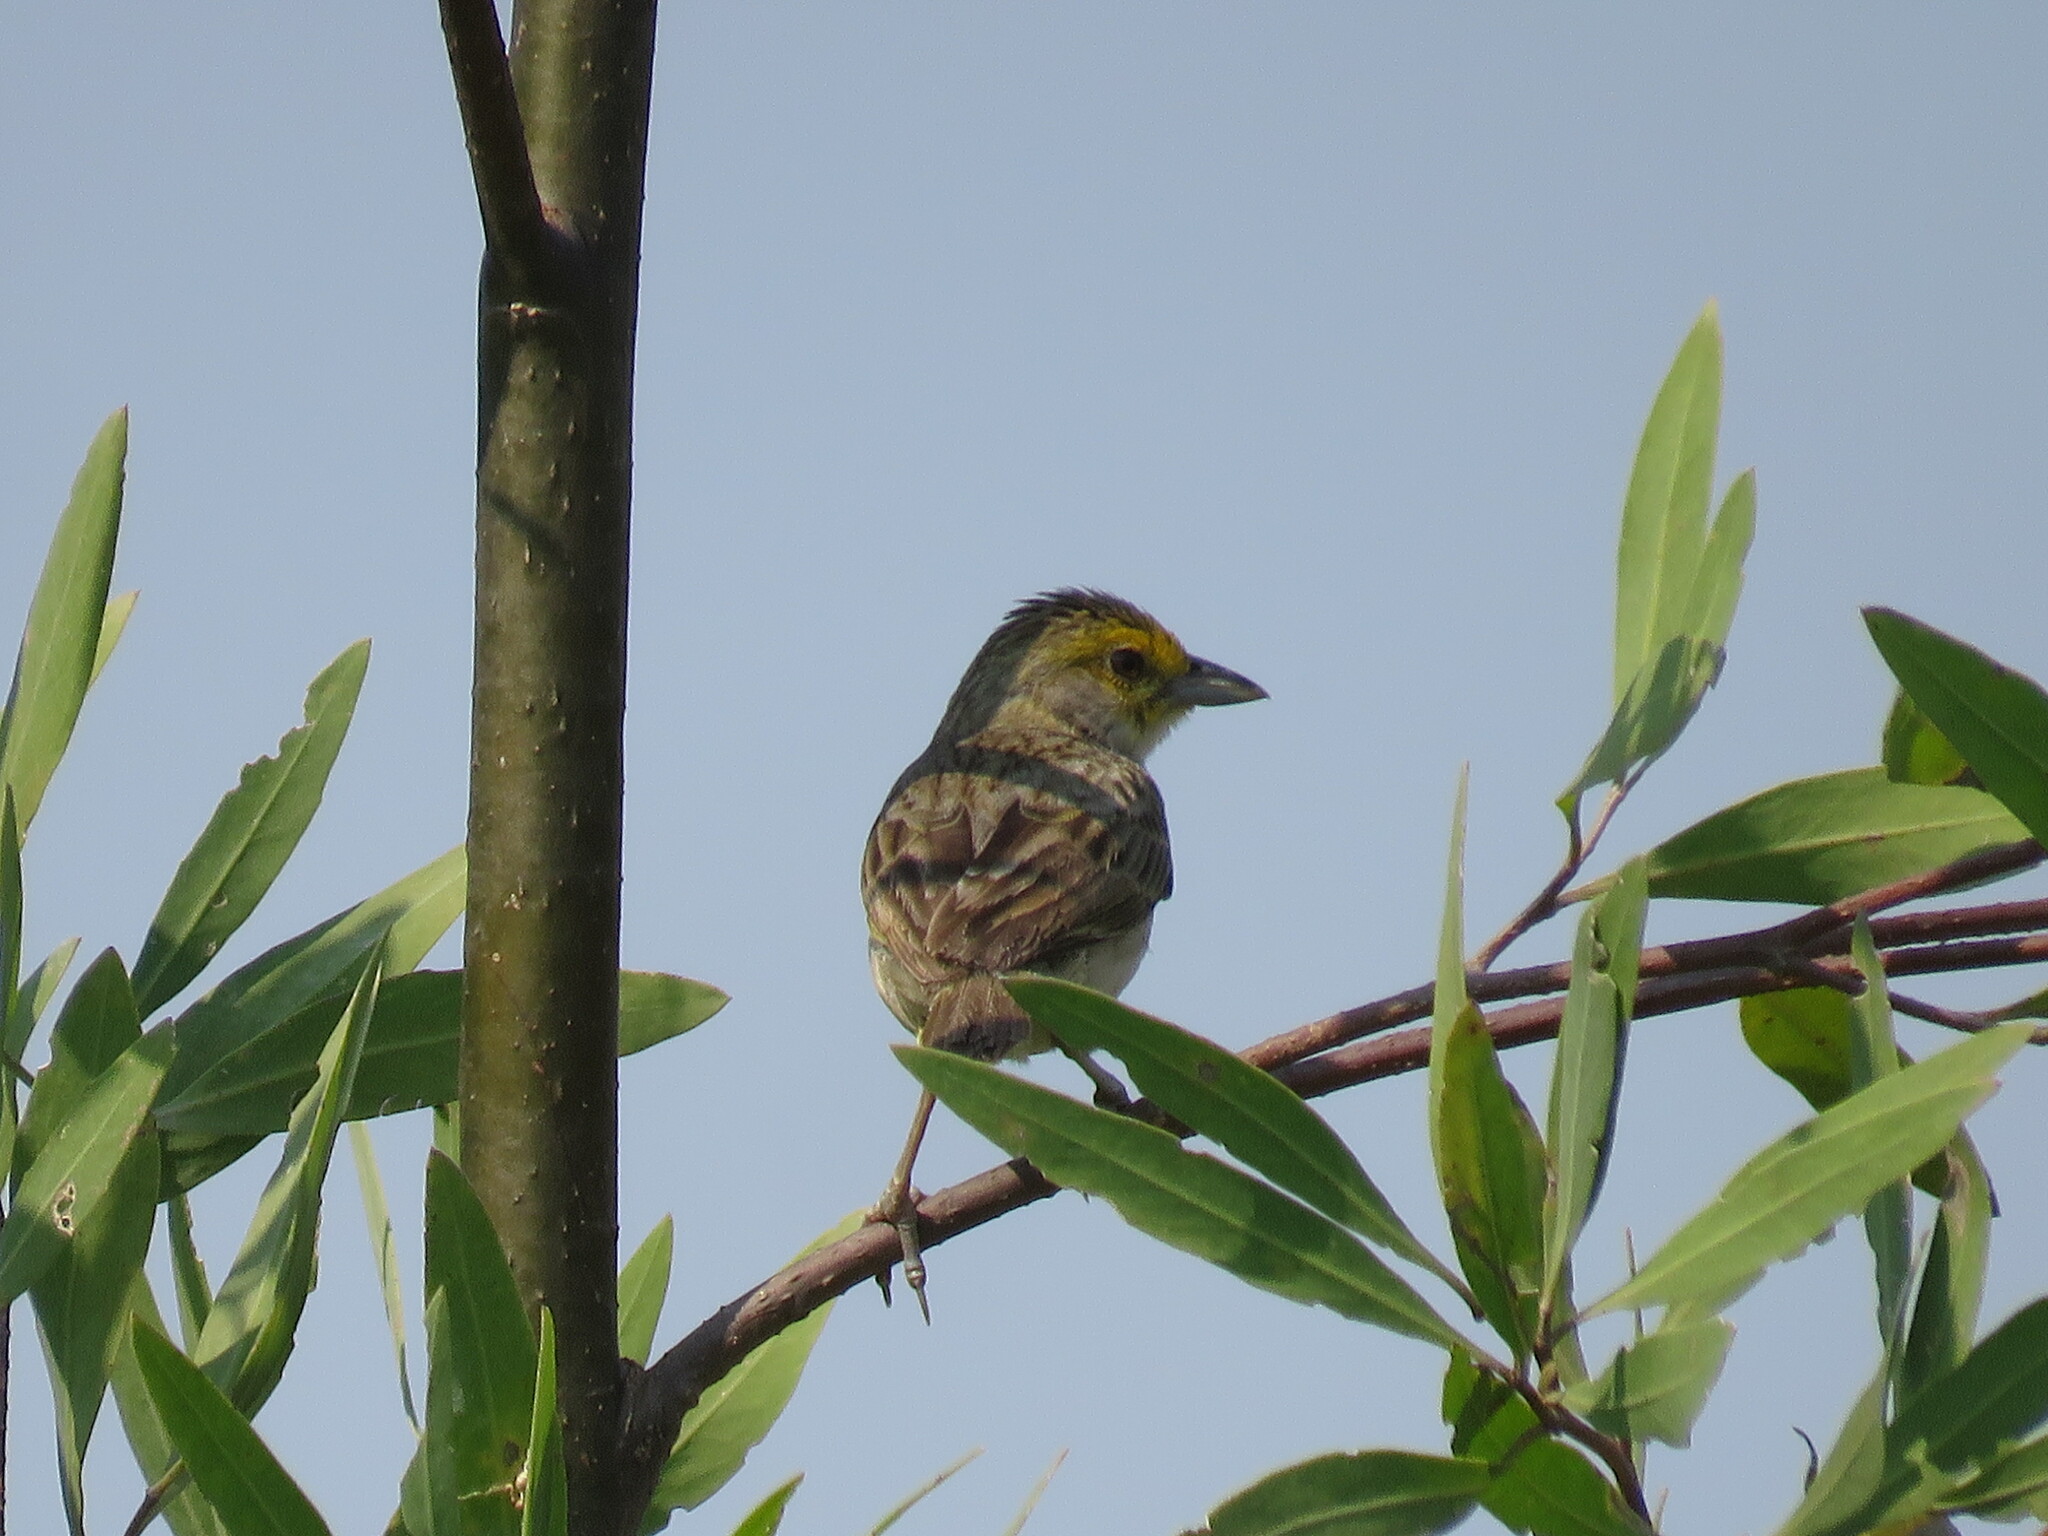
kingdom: Animalia
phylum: Chordata
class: Aves
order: Passeriformes
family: Passerellidae
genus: Ammodramus
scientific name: Ammodramus aurifrons
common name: Yellow-browed sparrow
